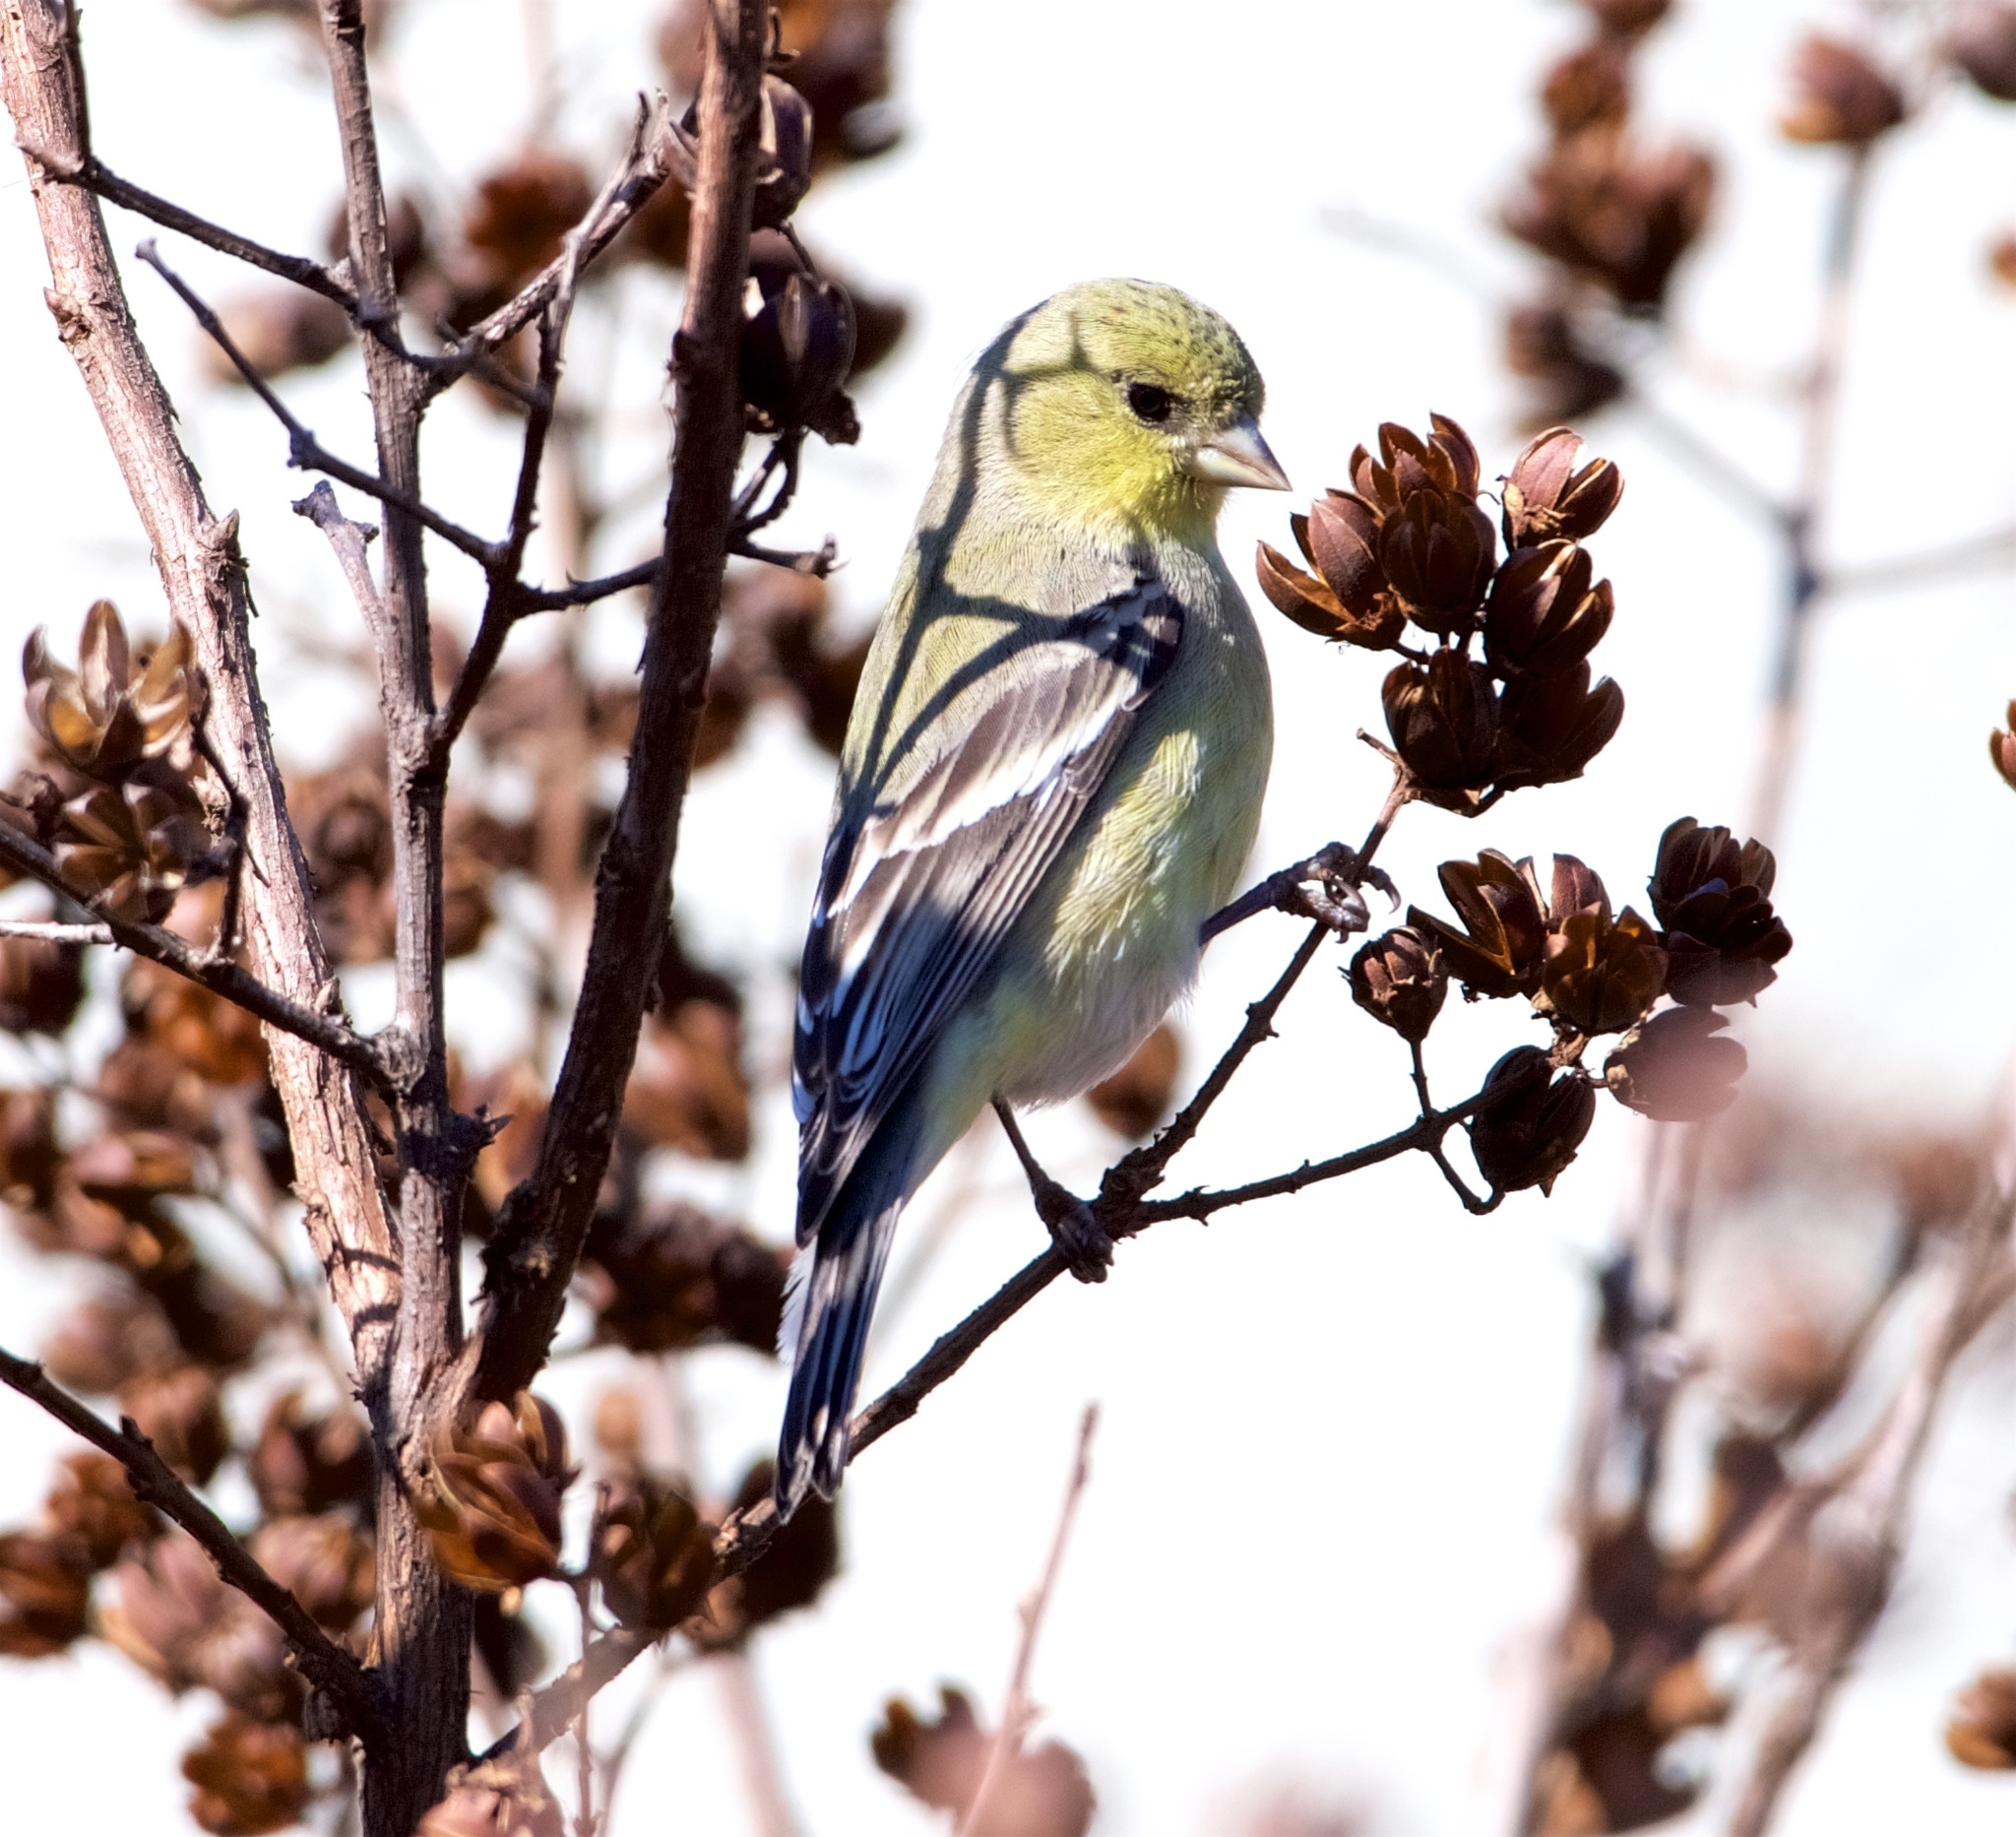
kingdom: Animalia
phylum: Chordata
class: Aves
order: Passeriformes
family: Fringillidae
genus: Spinus
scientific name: Spinus psaltria
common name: Lesser goldfinch
